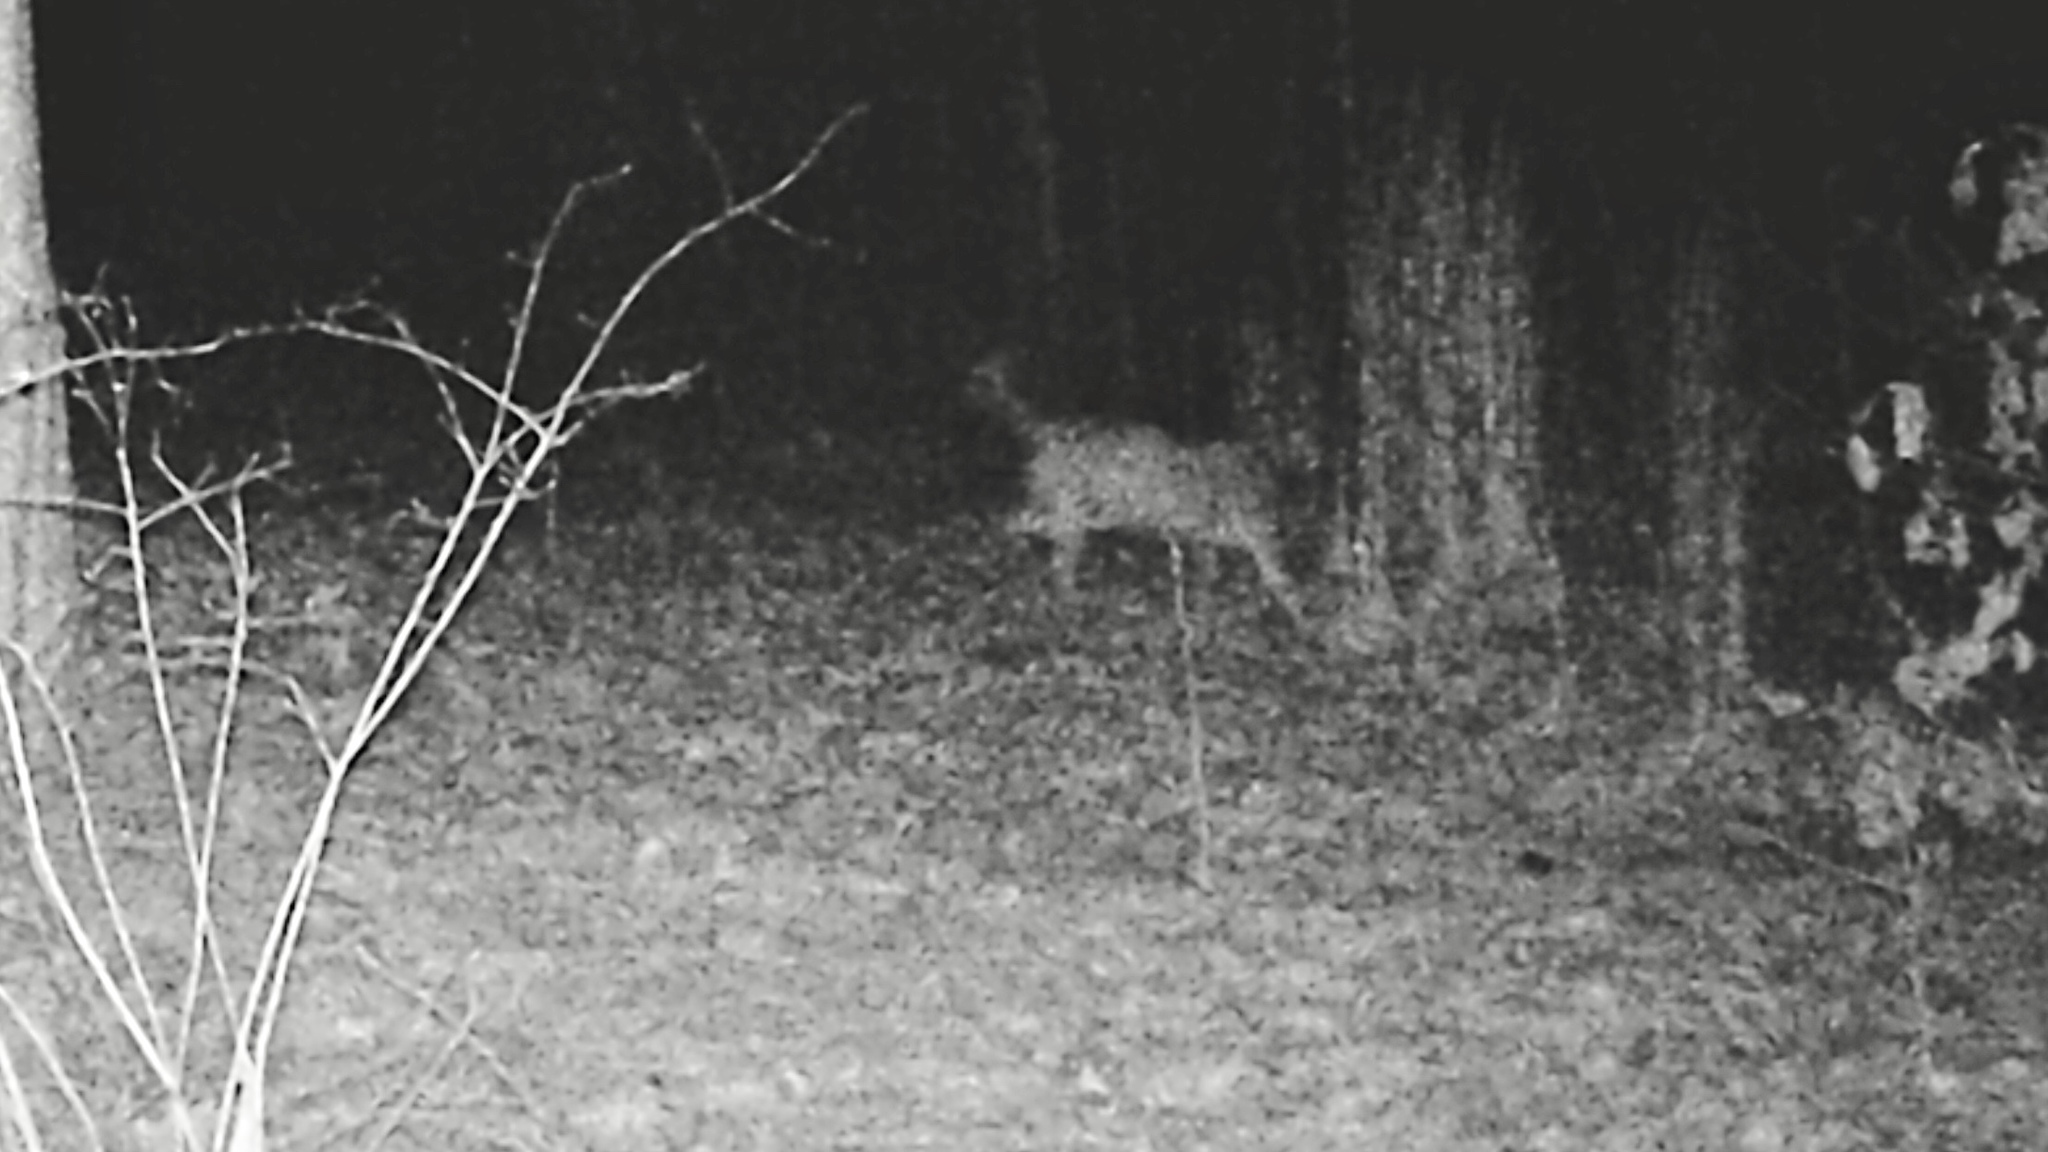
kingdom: Animalia
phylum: Chordata
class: Mammalia
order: Carnivora
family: Felidae
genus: Lynx
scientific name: Lynx rufus
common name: Bobcat
